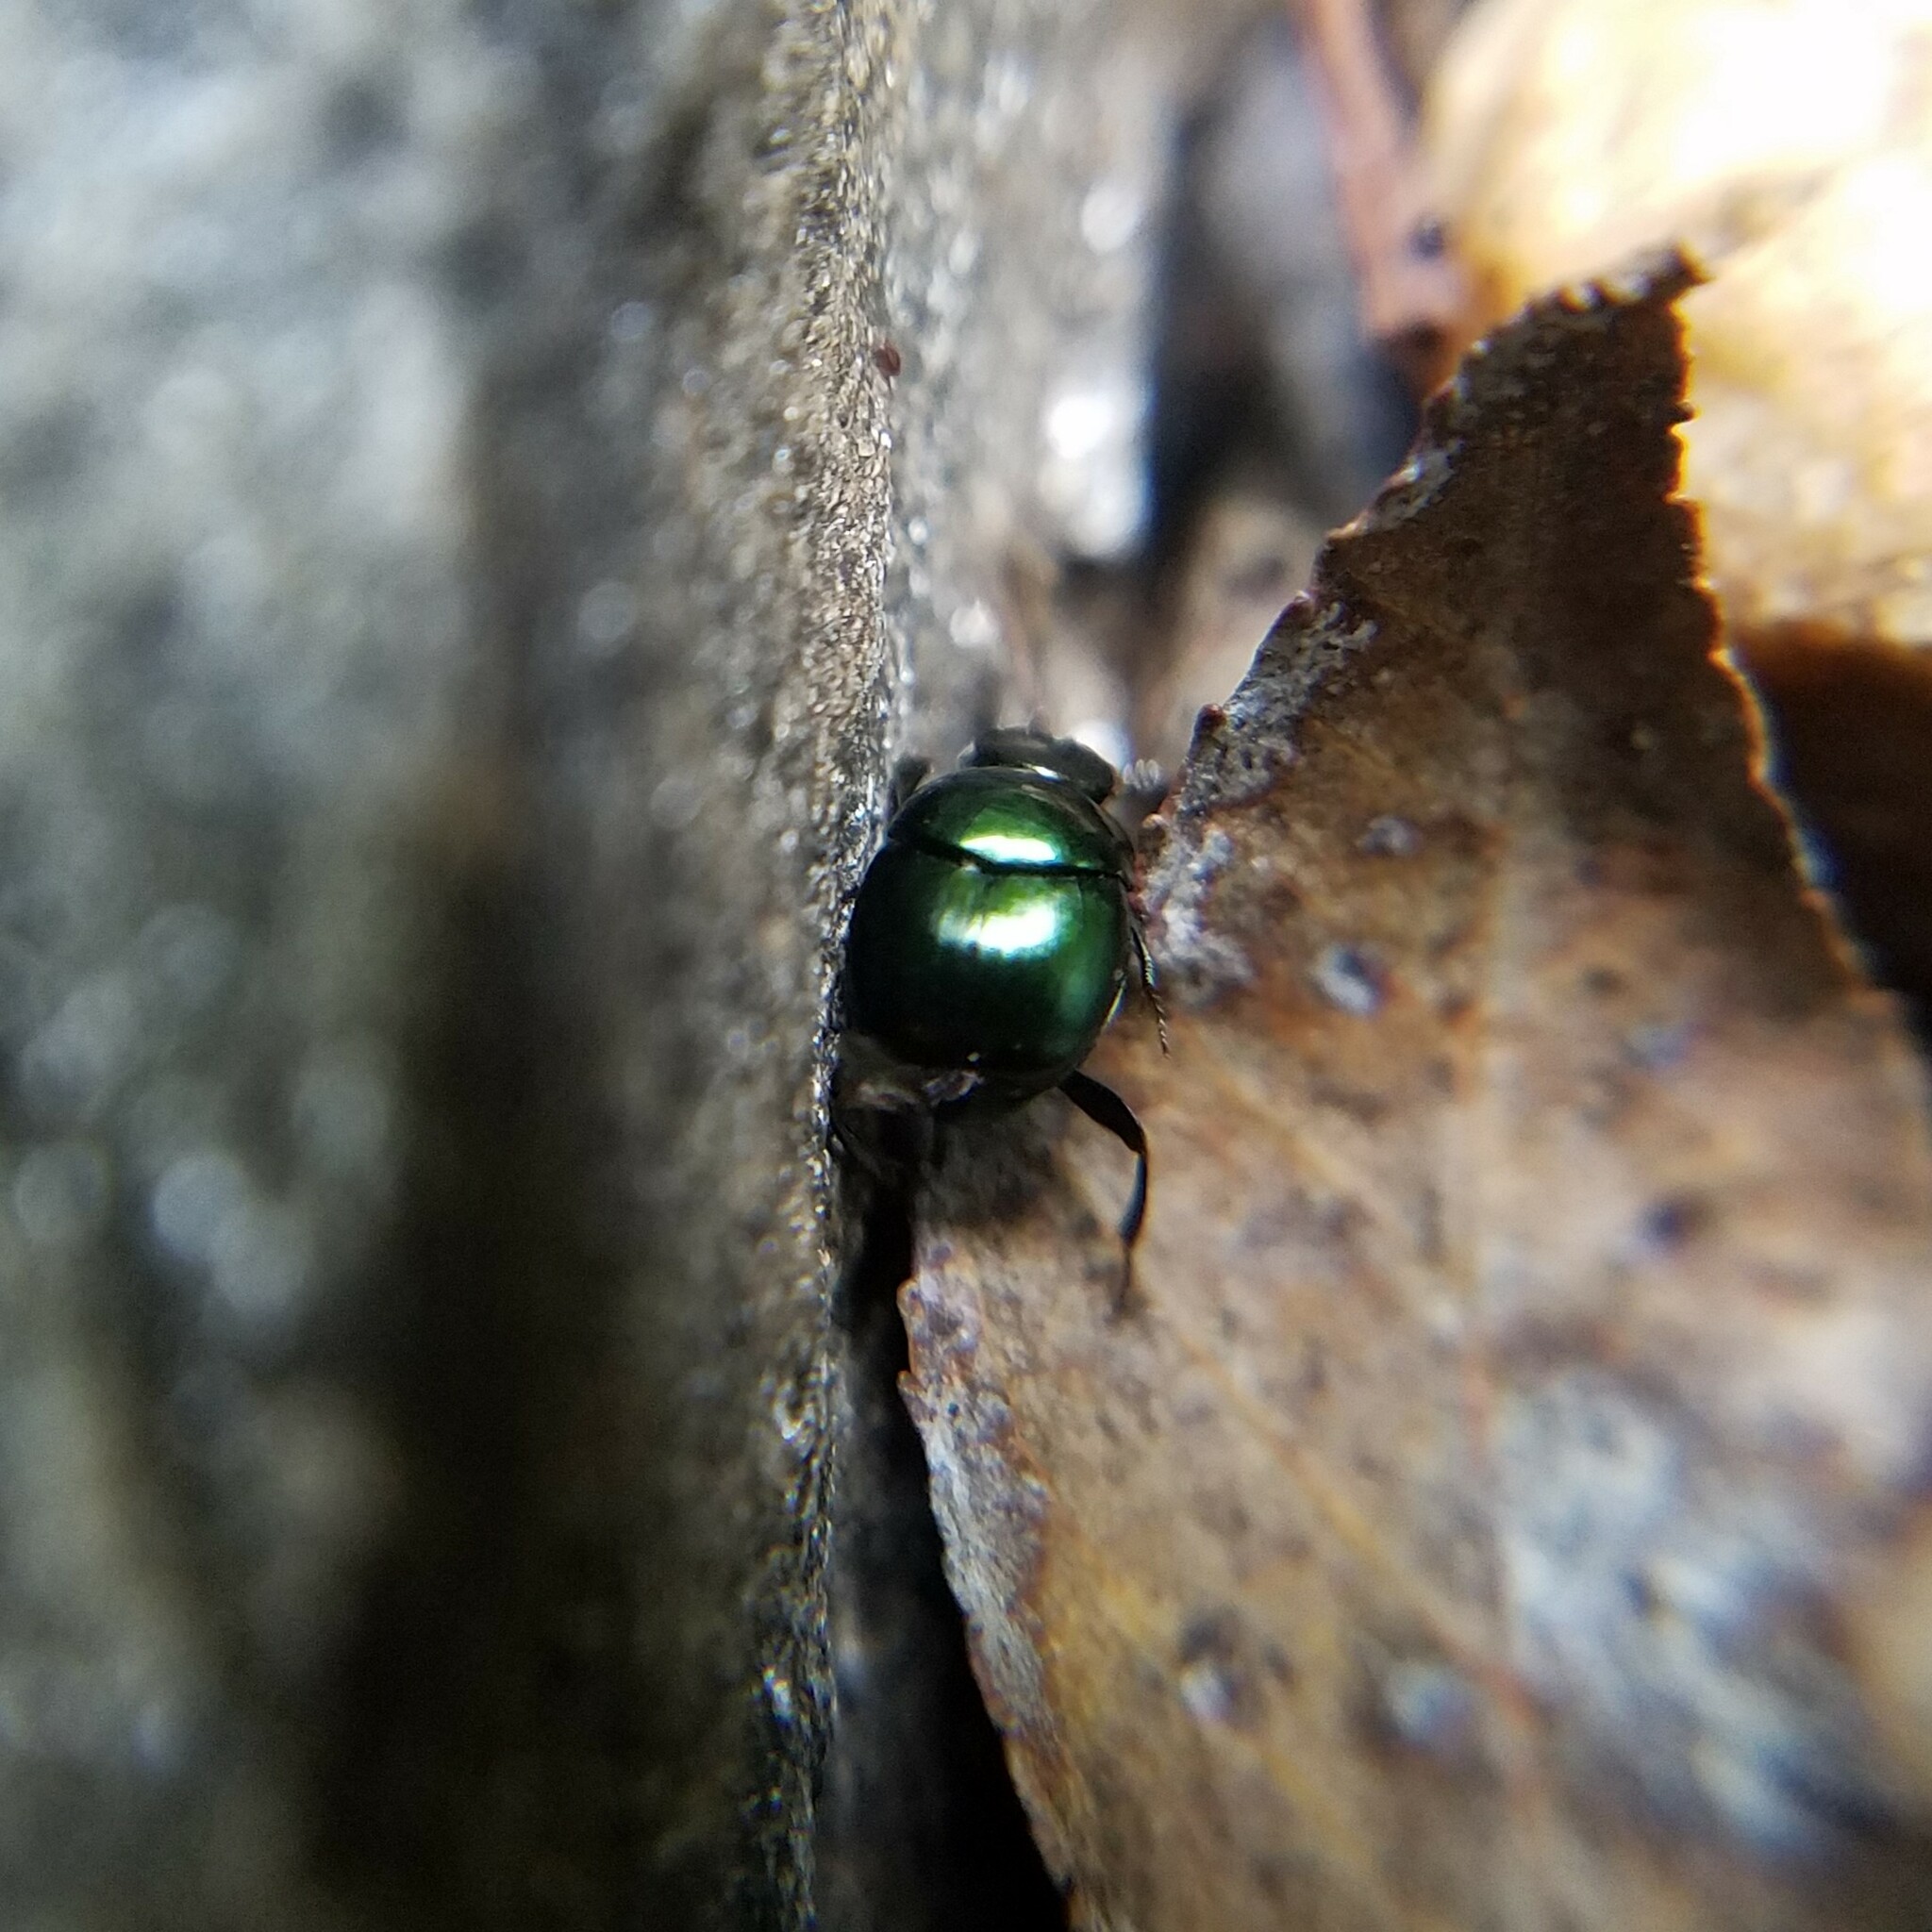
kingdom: Animalia
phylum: Arthropoda
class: Insecta
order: Coleoptera
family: Scarabaeidae
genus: Canthon
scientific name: Canthon viridis
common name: Tumblebug
